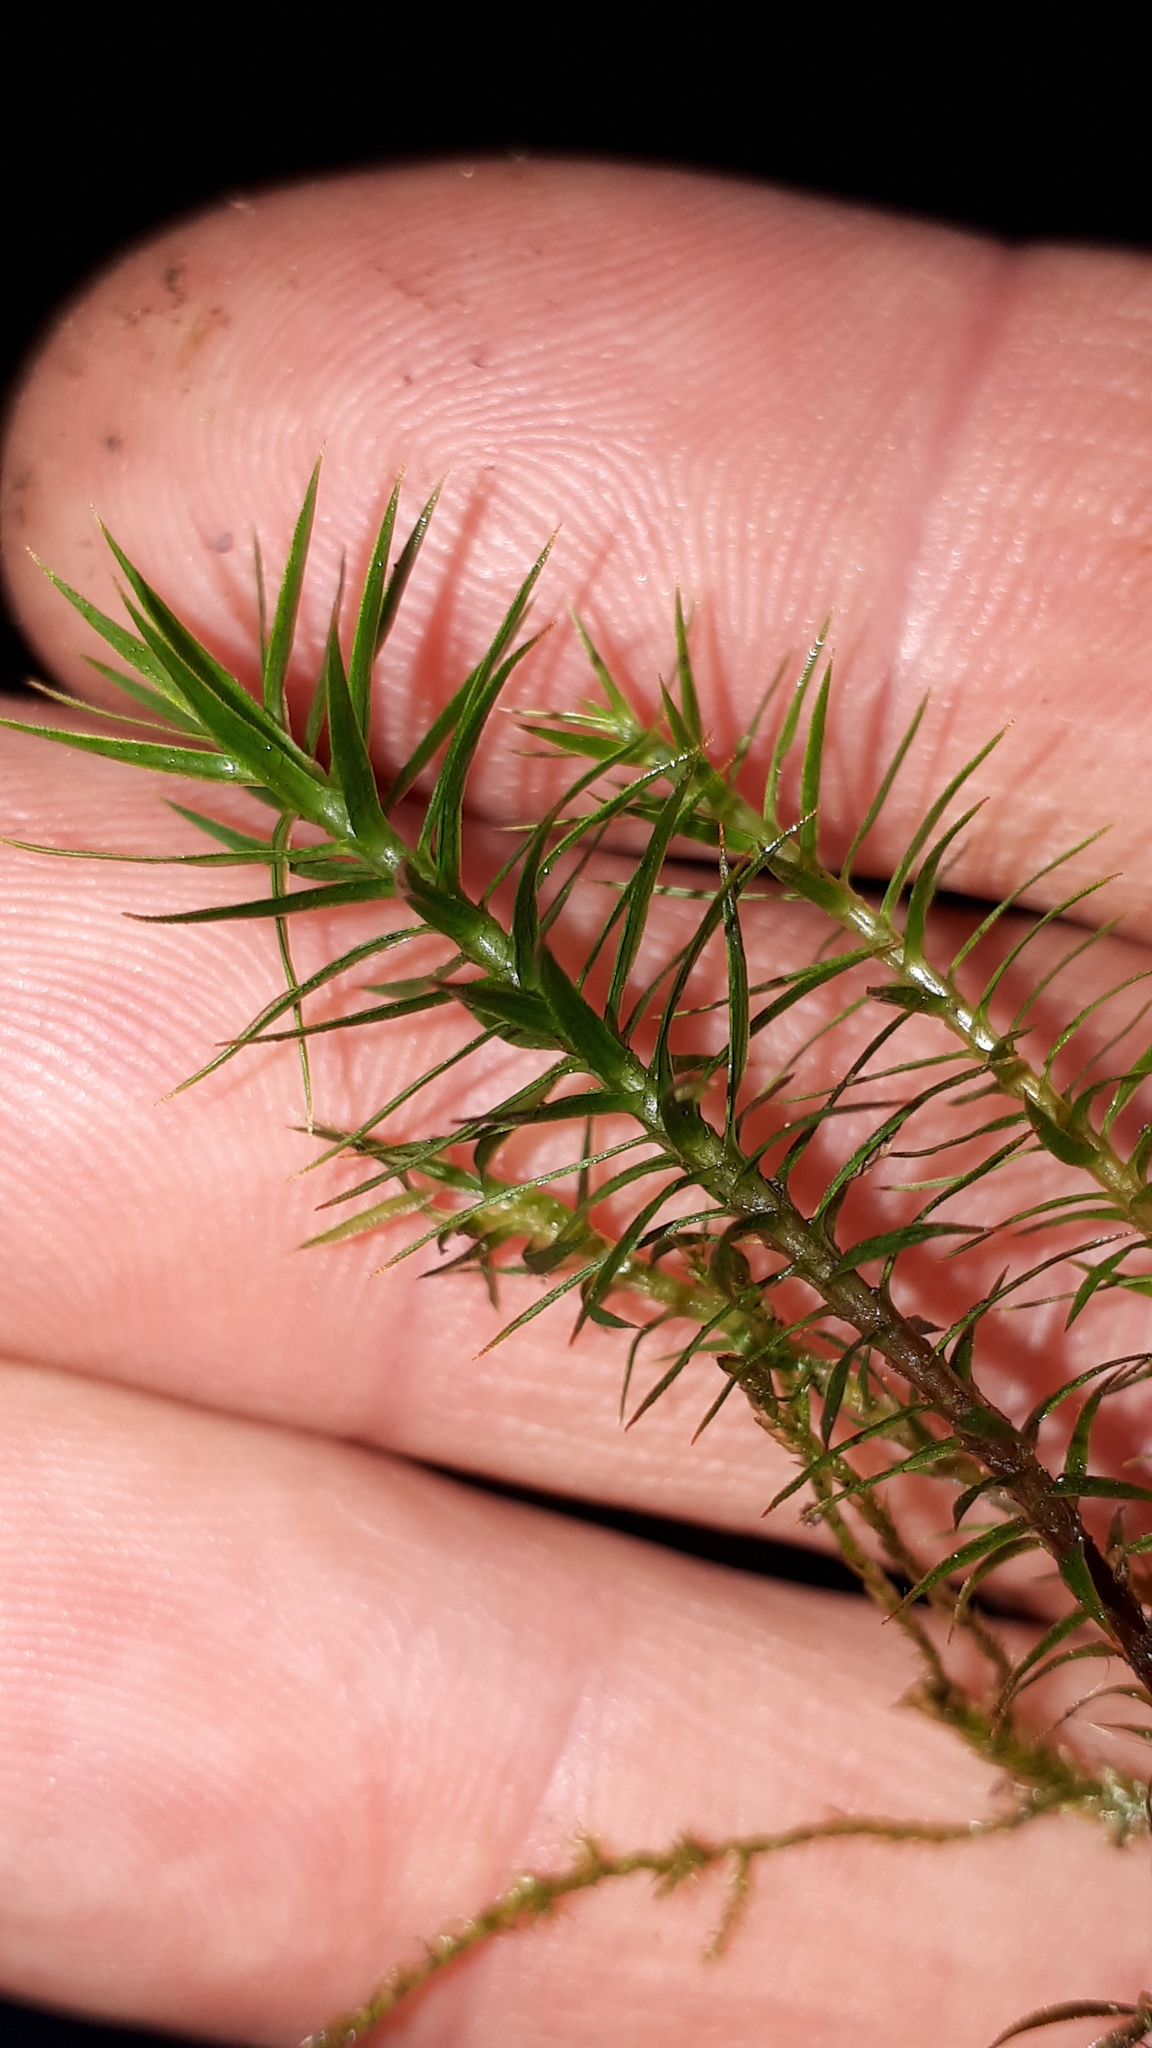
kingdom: Plantae
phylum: Bryophyta
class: Polytrichopsida
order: Polytrichales
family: Polytrichaceae
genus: Polytrichum
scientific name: Polytrichum formosum
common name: Bank haircap moss
